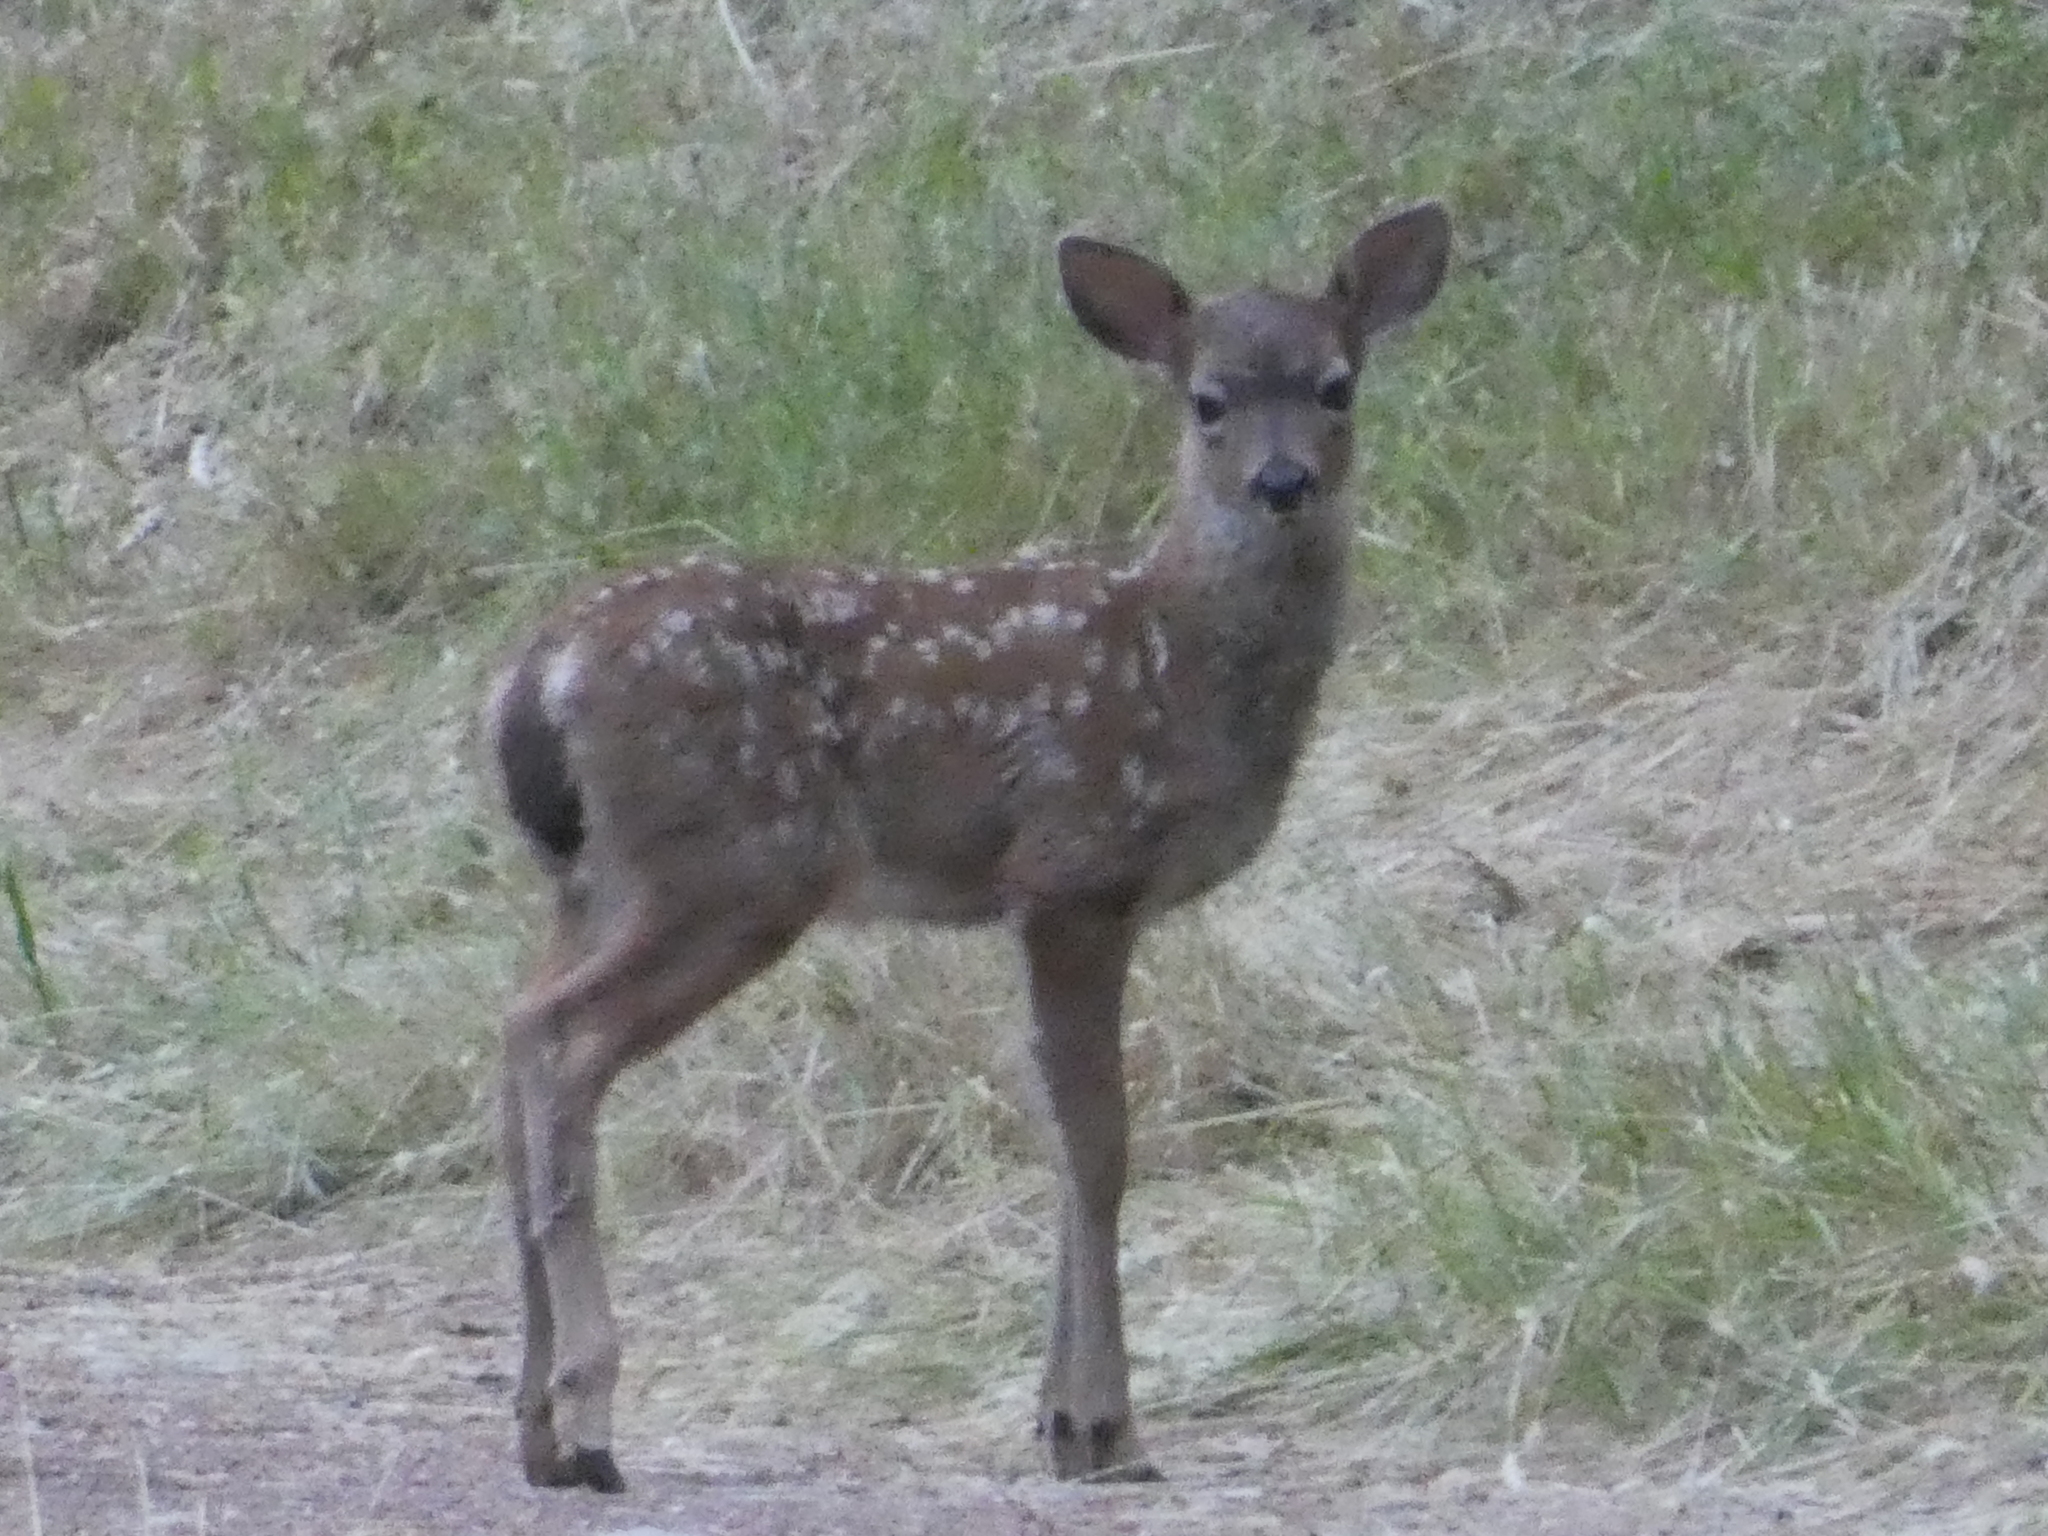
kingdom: Animalia
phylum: Chordata
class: Mammalia
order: Artiodactyla
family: Cervidae
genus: Odocoileus
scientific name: Odocoileus hemionus
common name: Mule deer
